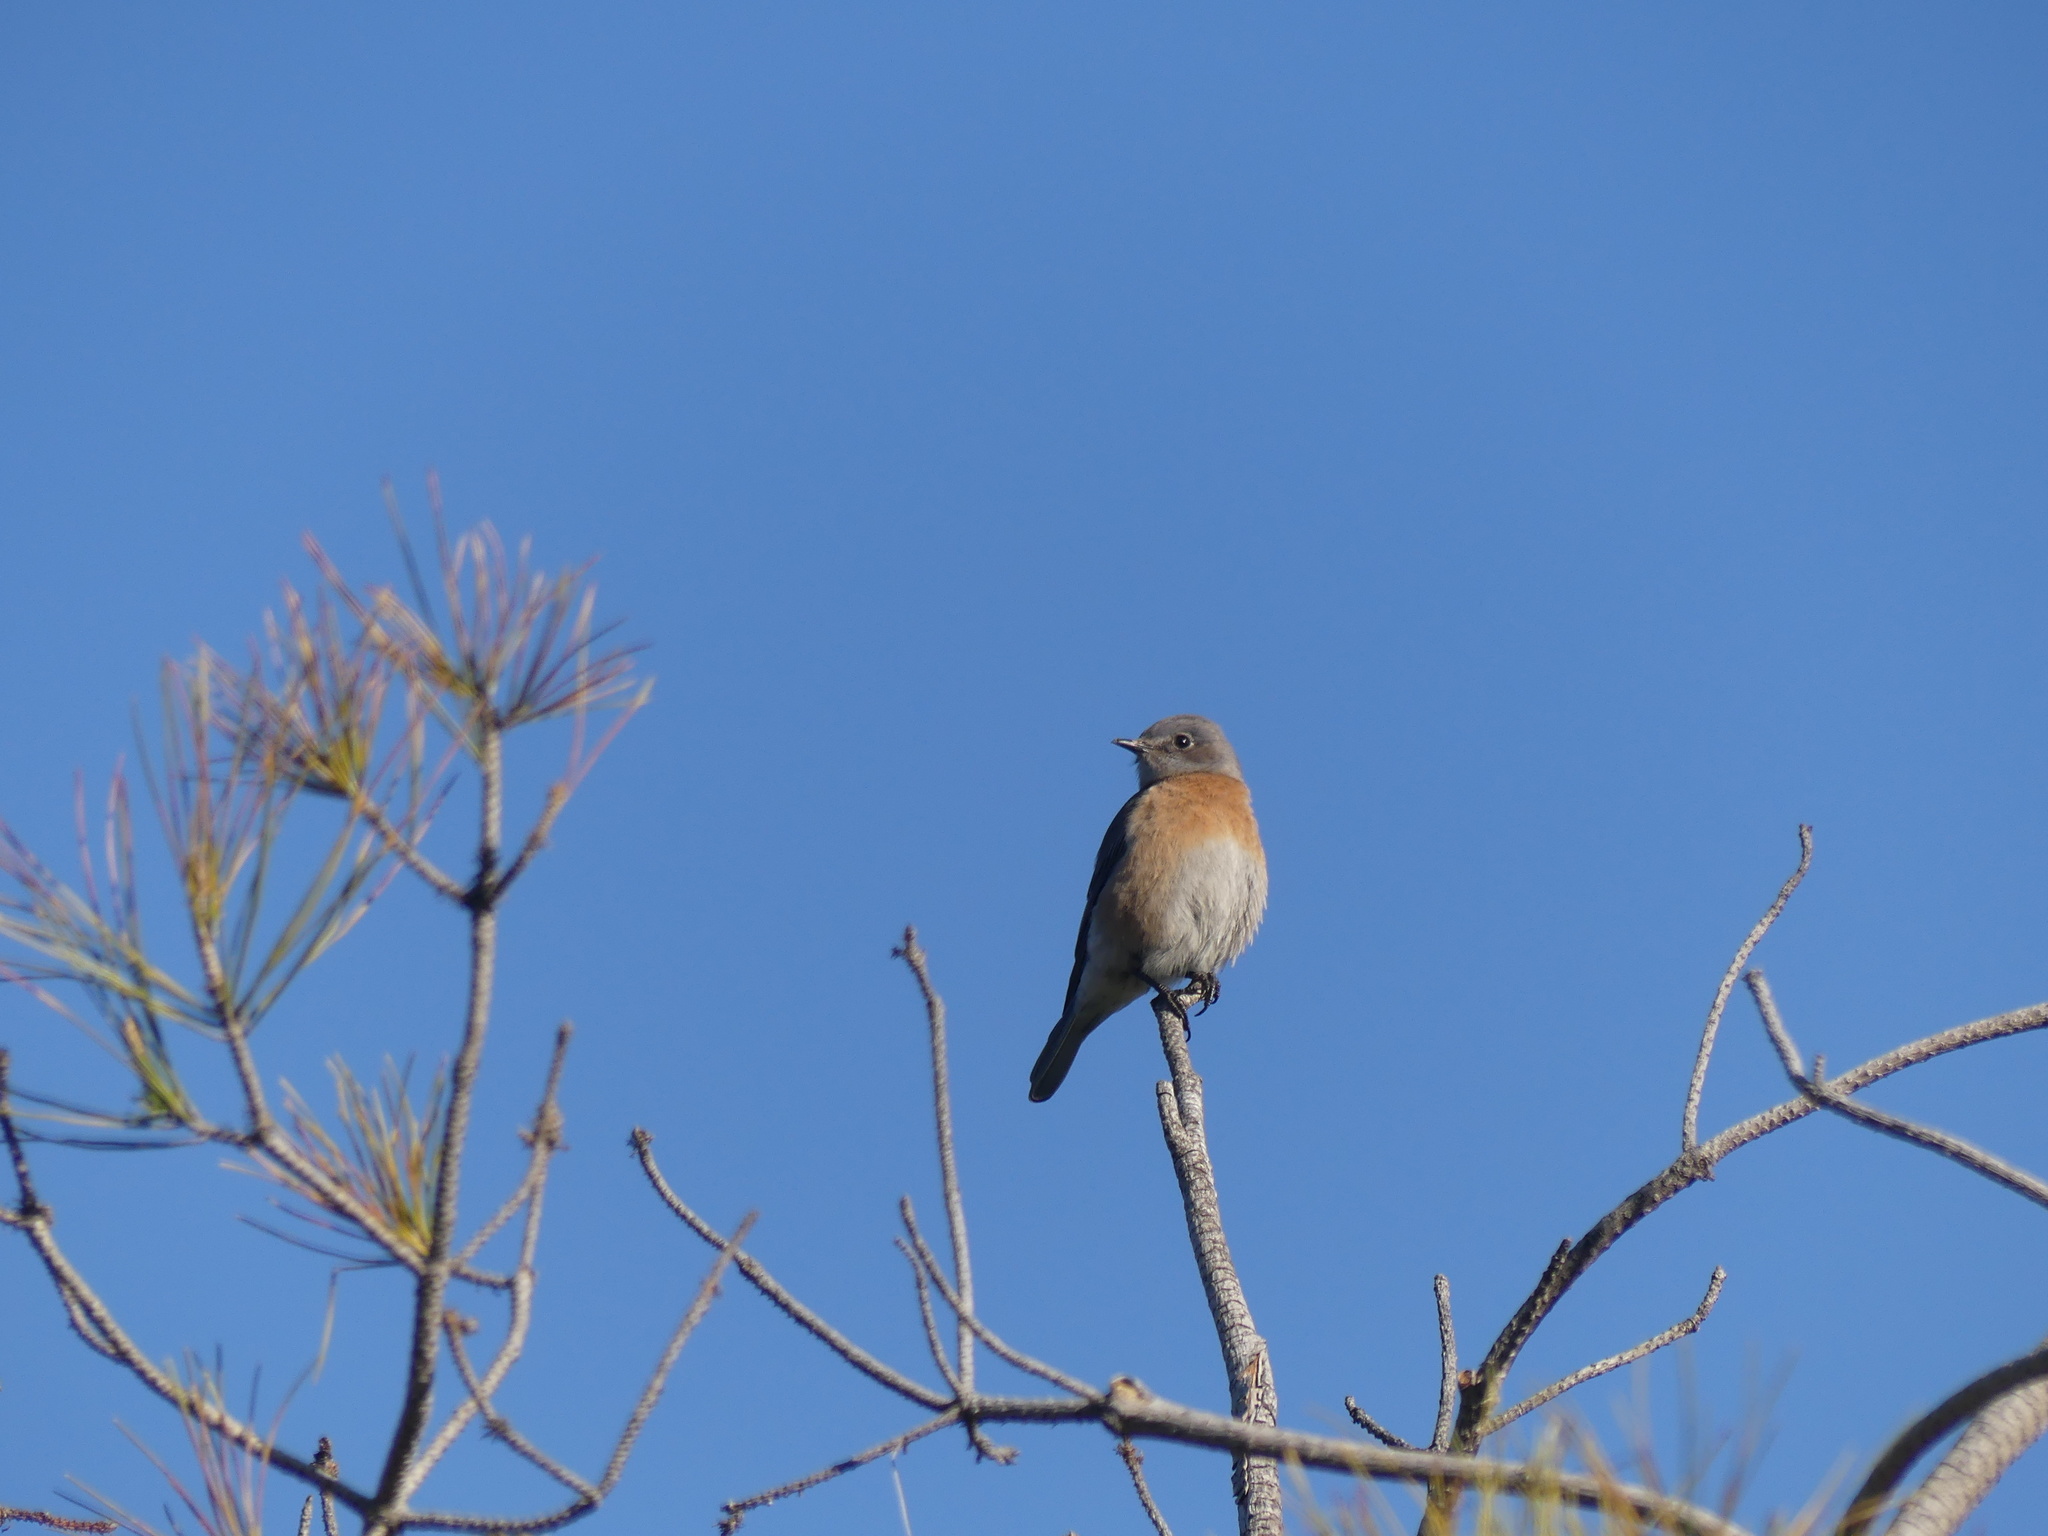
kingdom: Animalia
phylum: Chordata
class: Aves
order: Passeriformes
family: Turdidae
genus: Sialia
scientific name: Sialia mexicana
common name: Western bluebird
